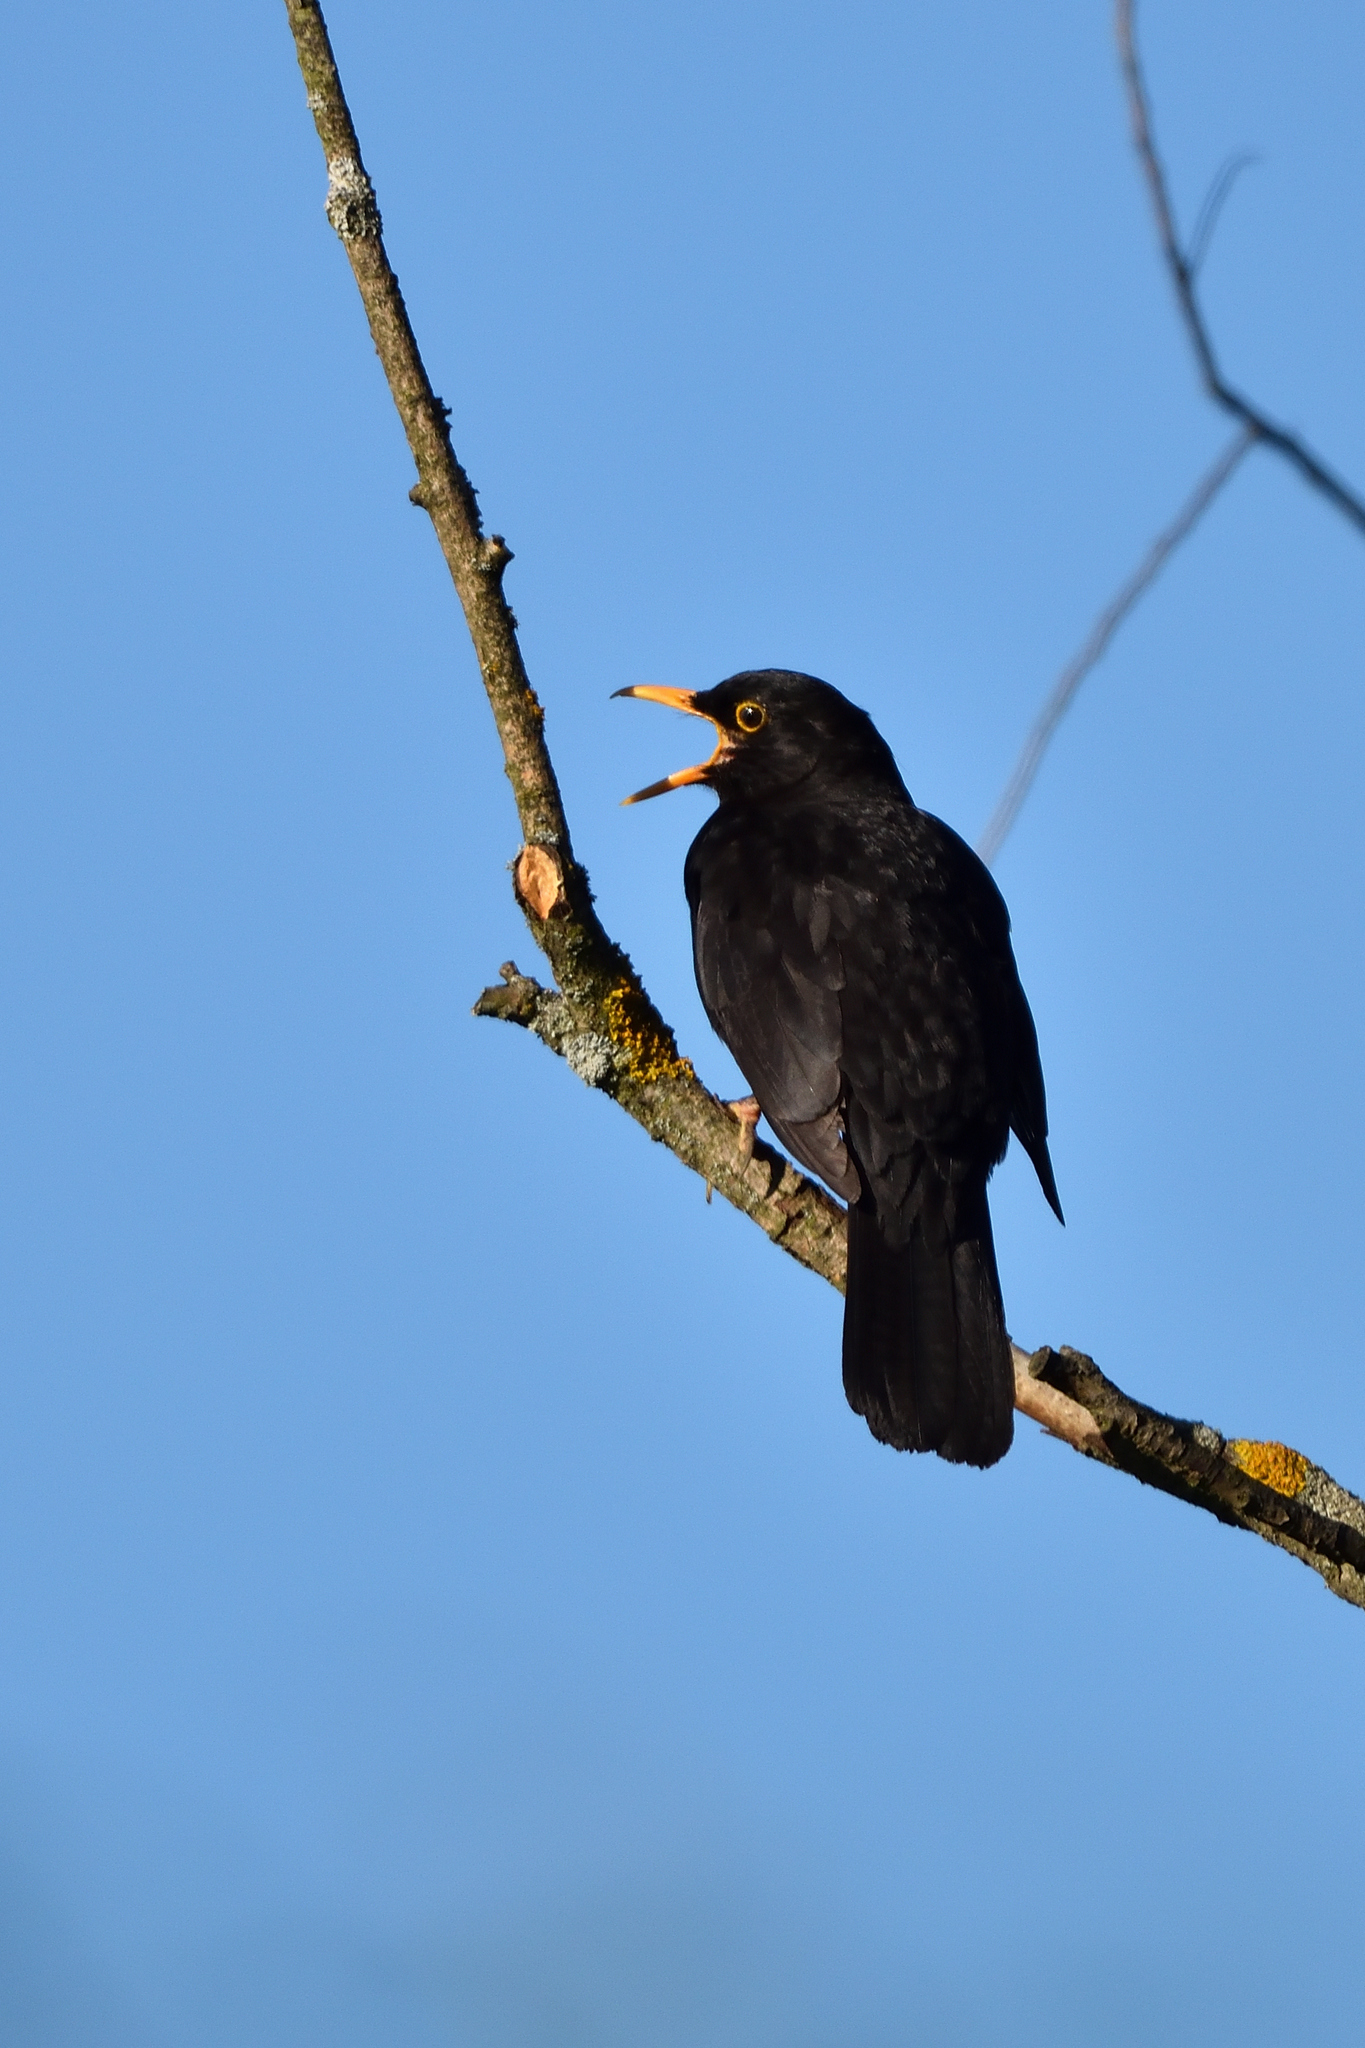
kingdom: Animalia
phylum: Chordata
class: Aves
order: Passeriformes
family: Turdidae
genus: Turdus
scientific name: Turdus merula
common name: Common blackbird
